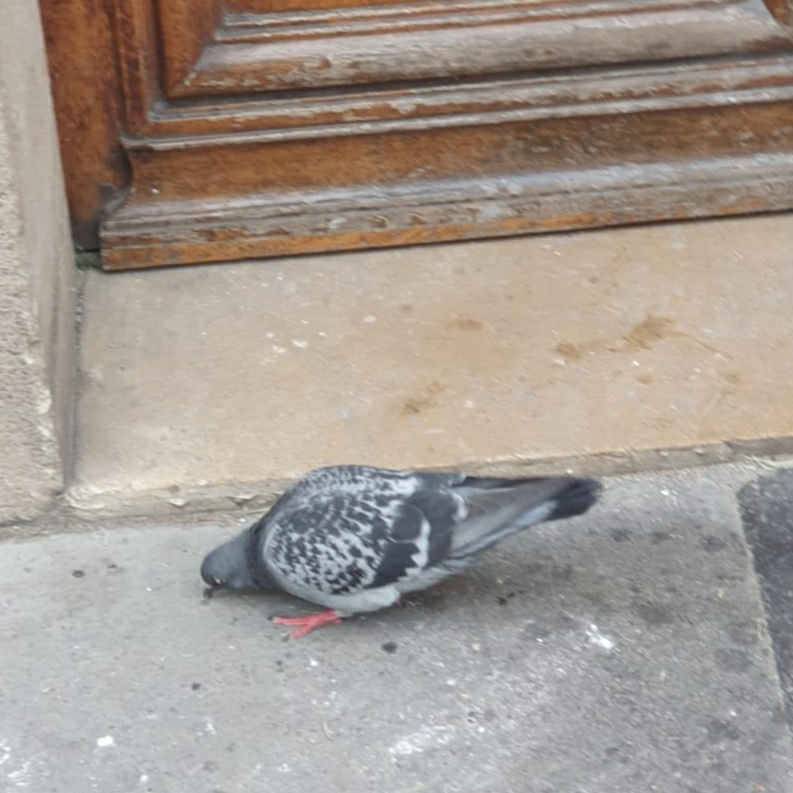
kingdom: Animalia
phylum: Chordata
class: Aves
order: Columbiformes
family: Columbidae
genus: Columba
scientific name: Columba livia
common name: Rock pigeon
